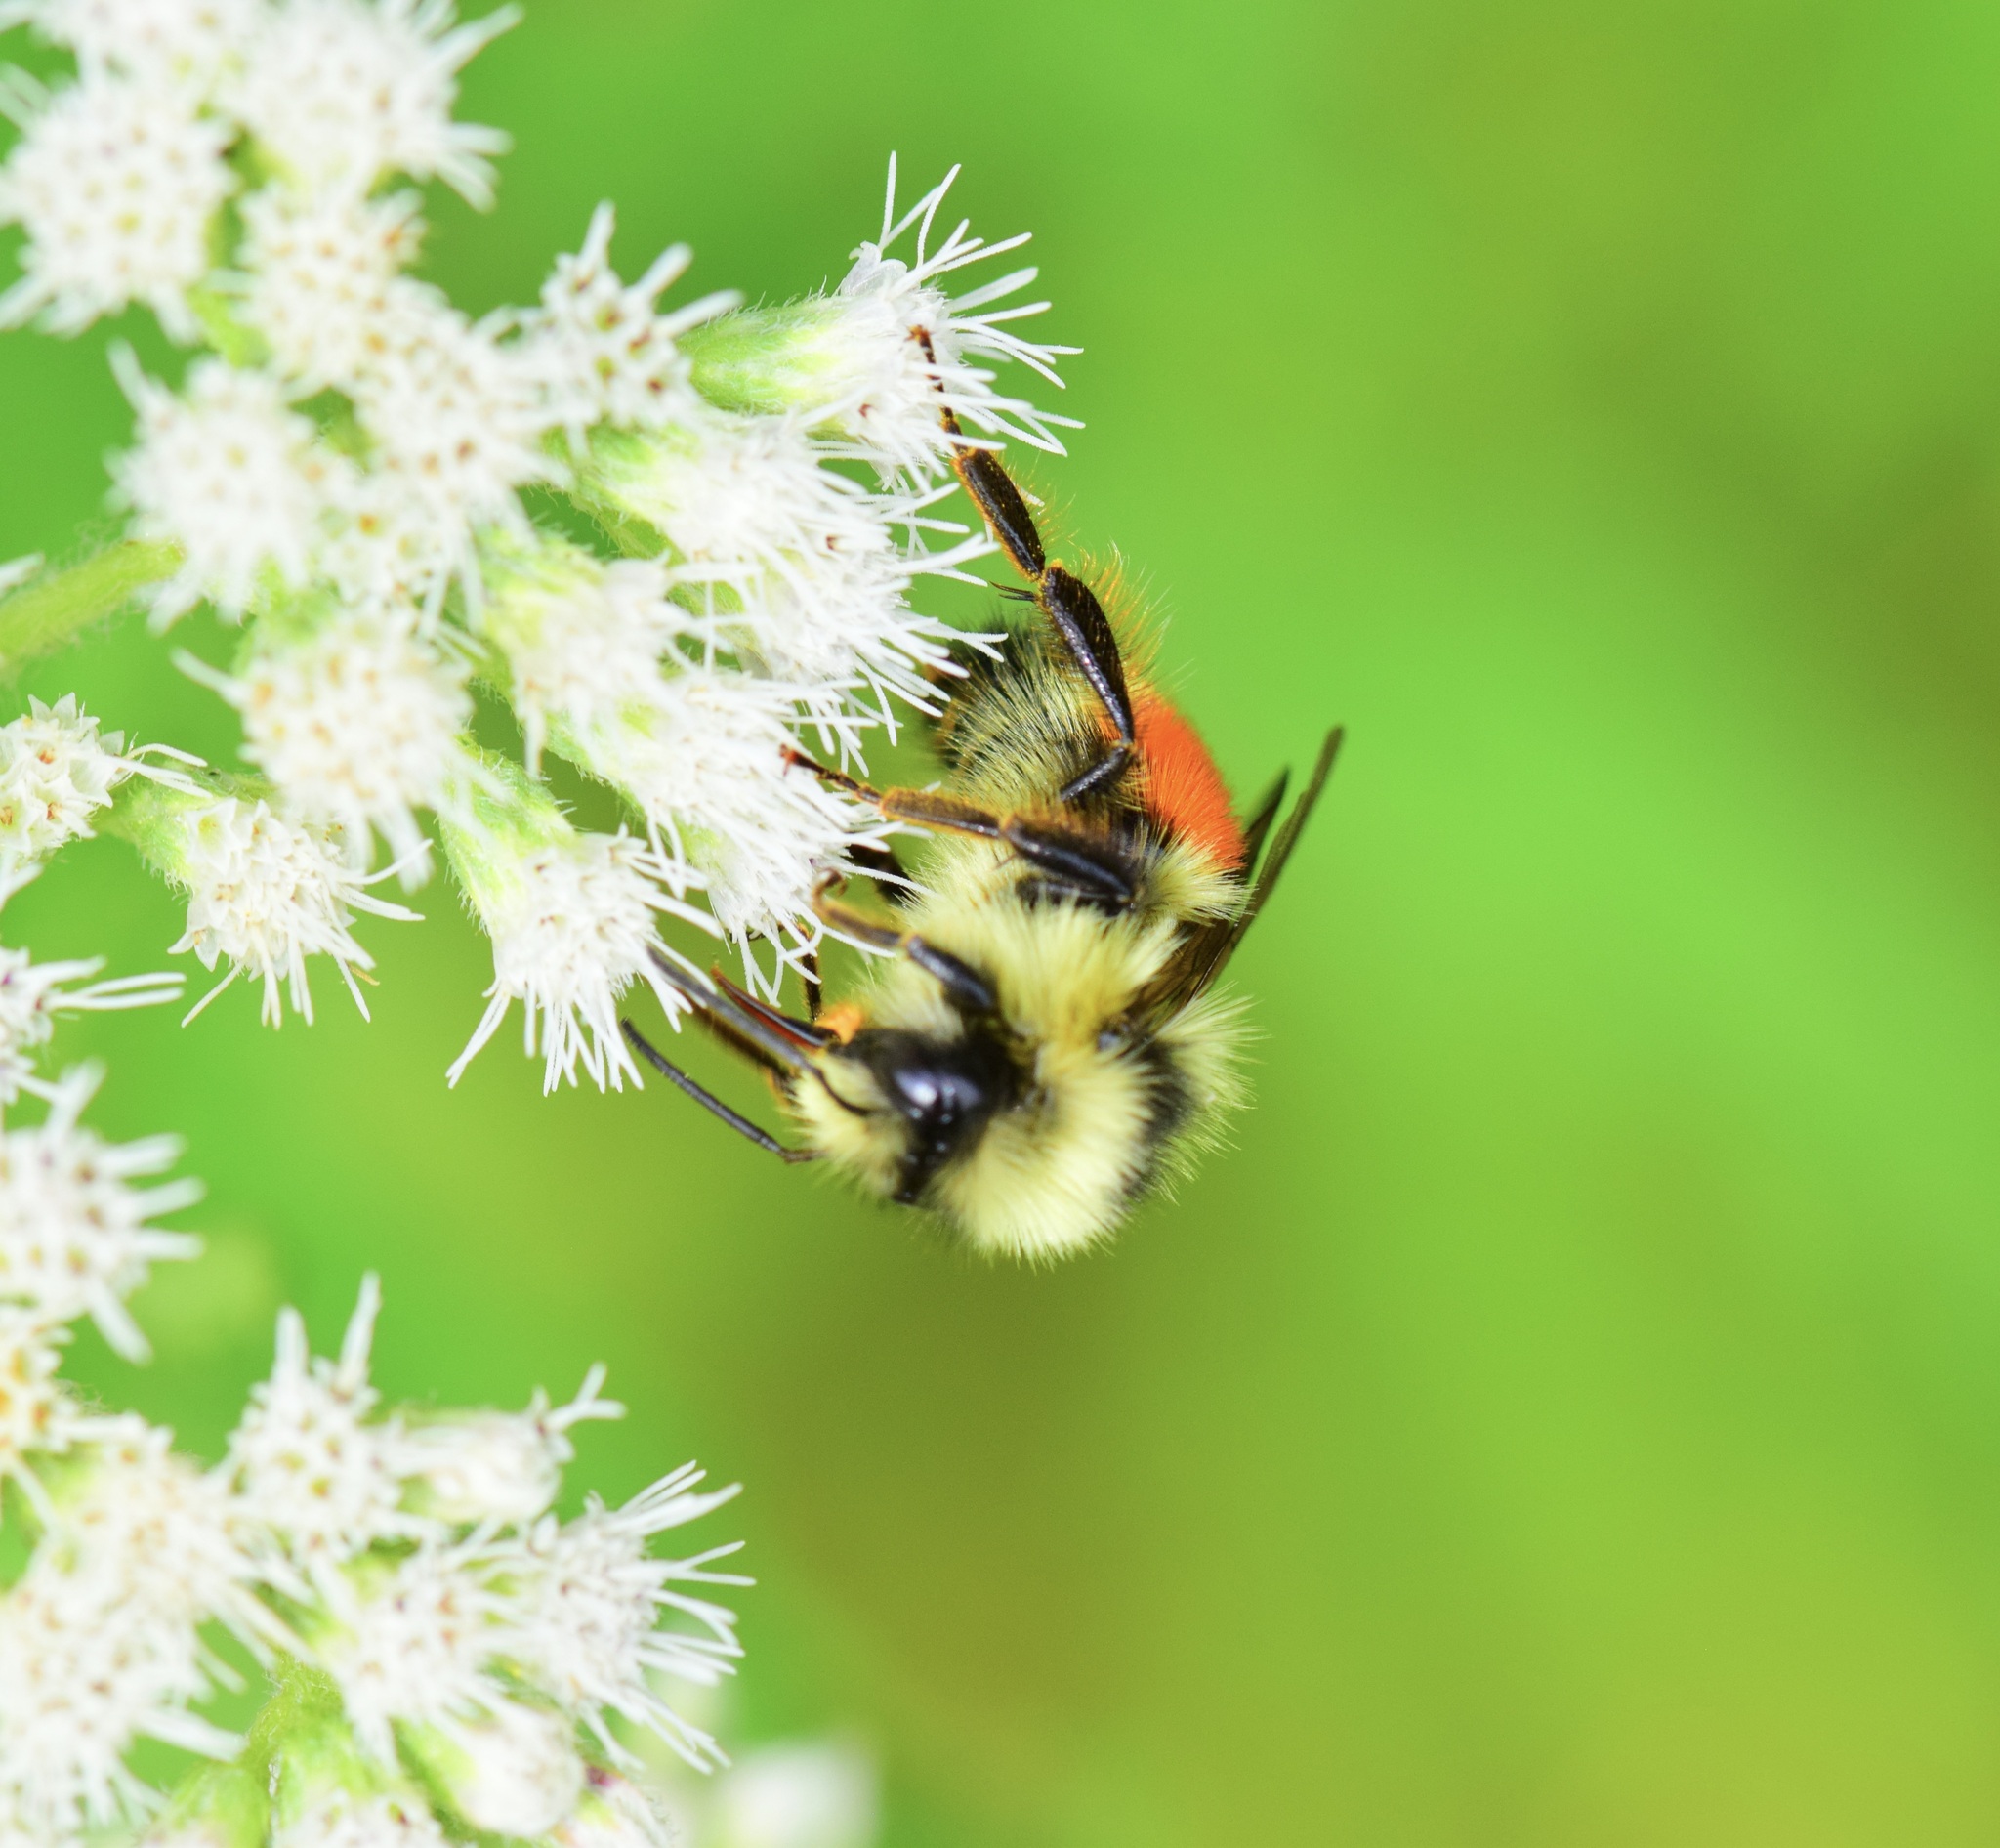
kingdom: Animalia
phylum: Arthropoda
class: Insecta
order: Hymenoptera
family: Apidae
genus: Bombus
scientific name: Bombus ternarius
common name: Tri-colored bumble bee
